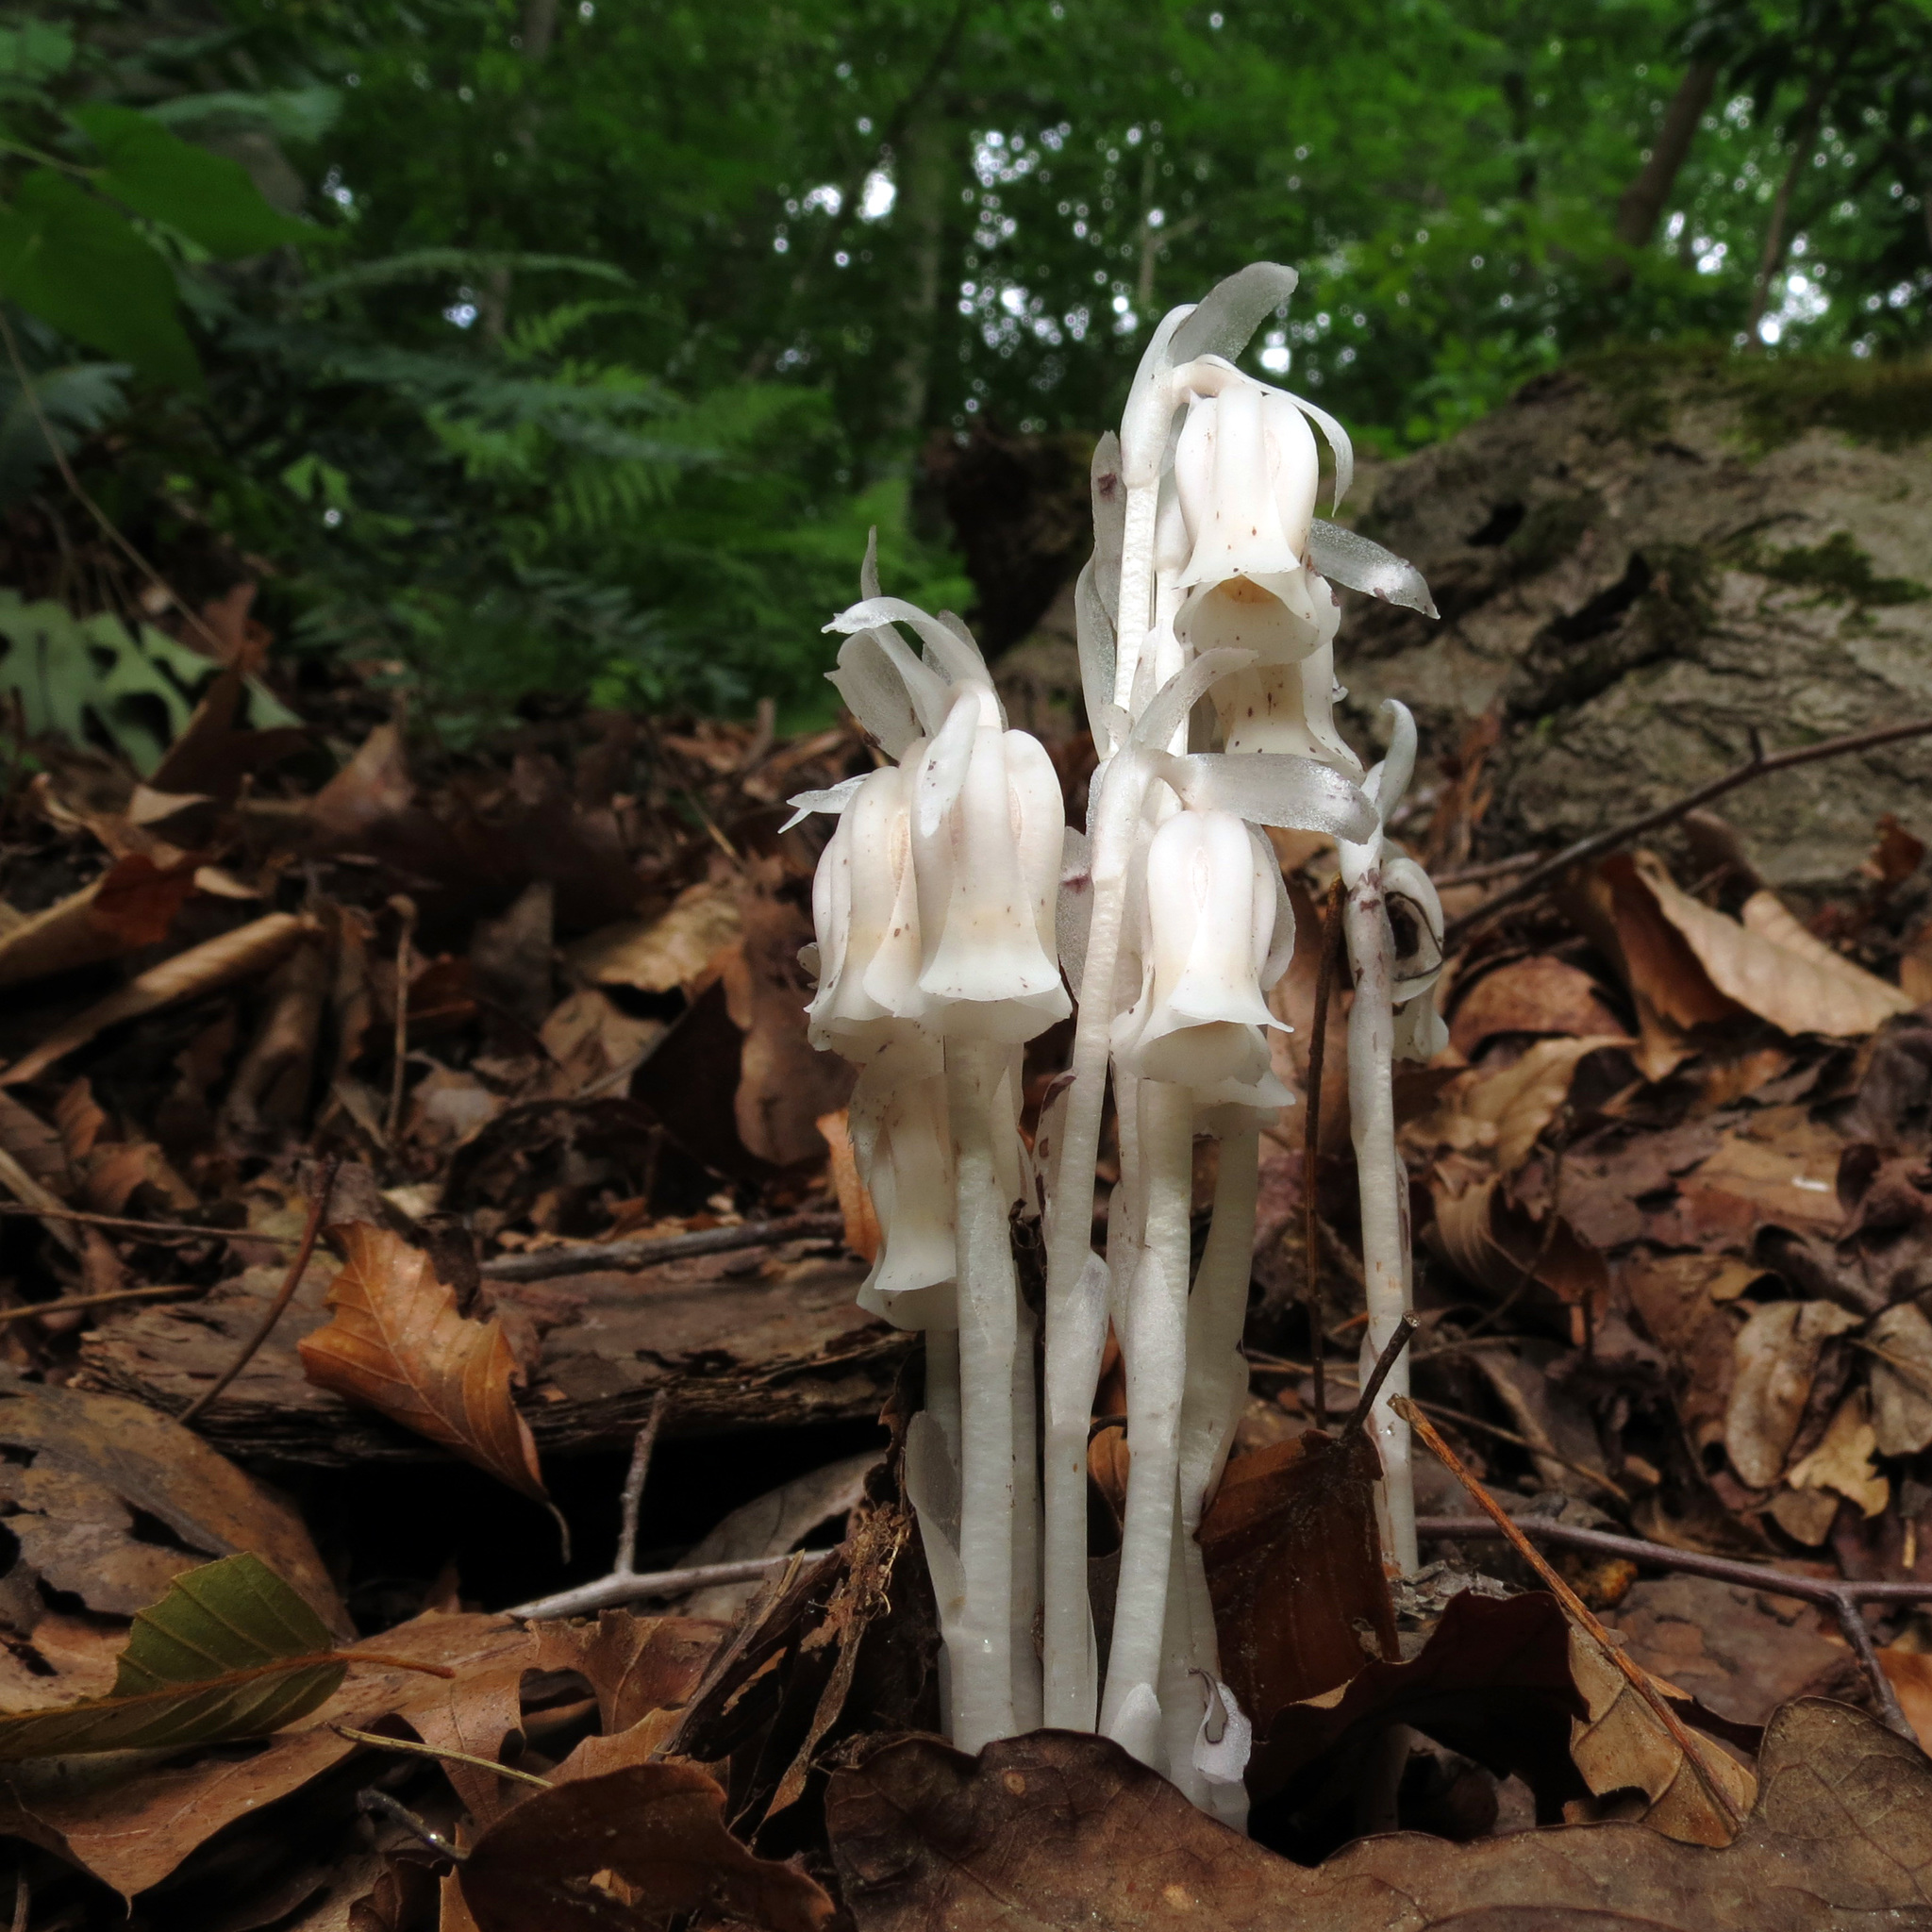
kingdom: Plantae
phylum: Tracheophyta
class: Magnoliopsida
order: Ericales
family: Ericaceae
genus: Monotropa
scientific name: Monotropa uniflora
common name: Convulsion root
